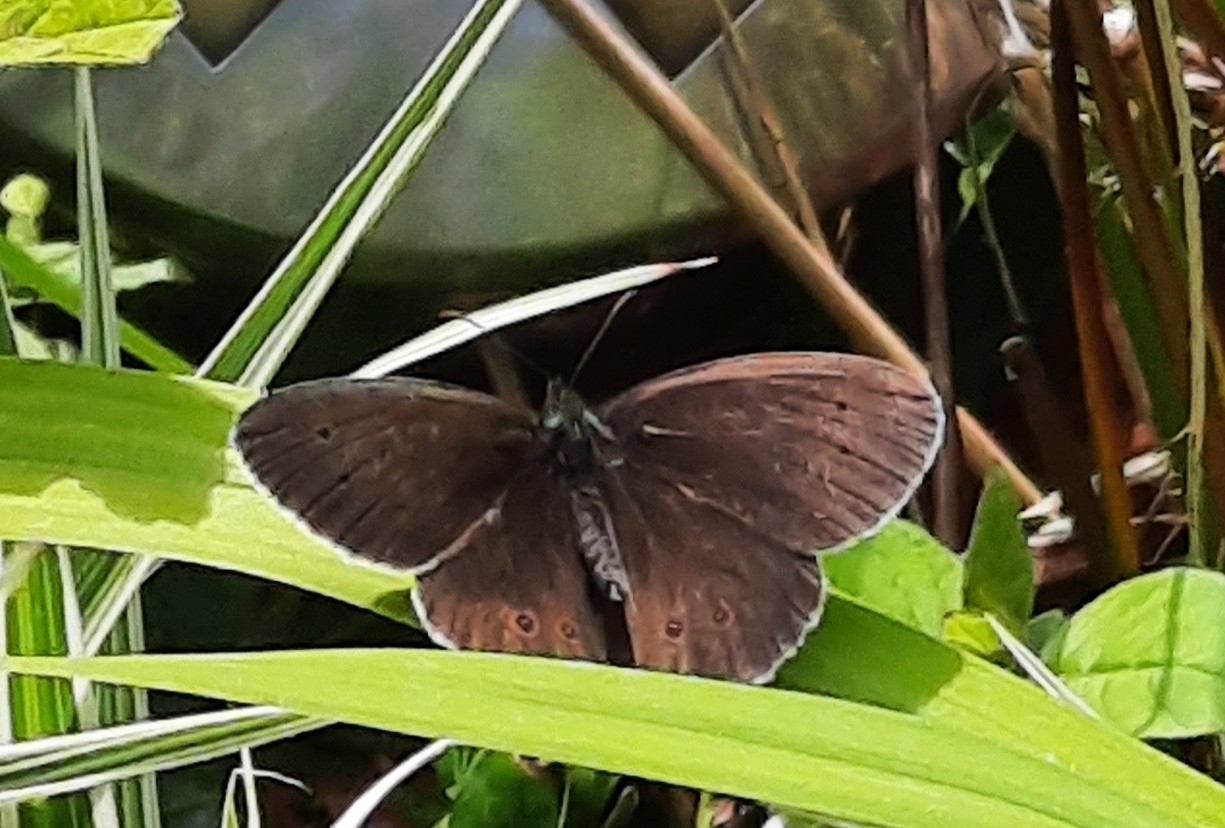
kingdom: Animalia
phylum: Arthropoda
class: Insecta
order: Lepidoptera
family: Nymphalidae
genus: Aphantopus
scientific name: Aphantopus hyperantus
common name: Ringlet
